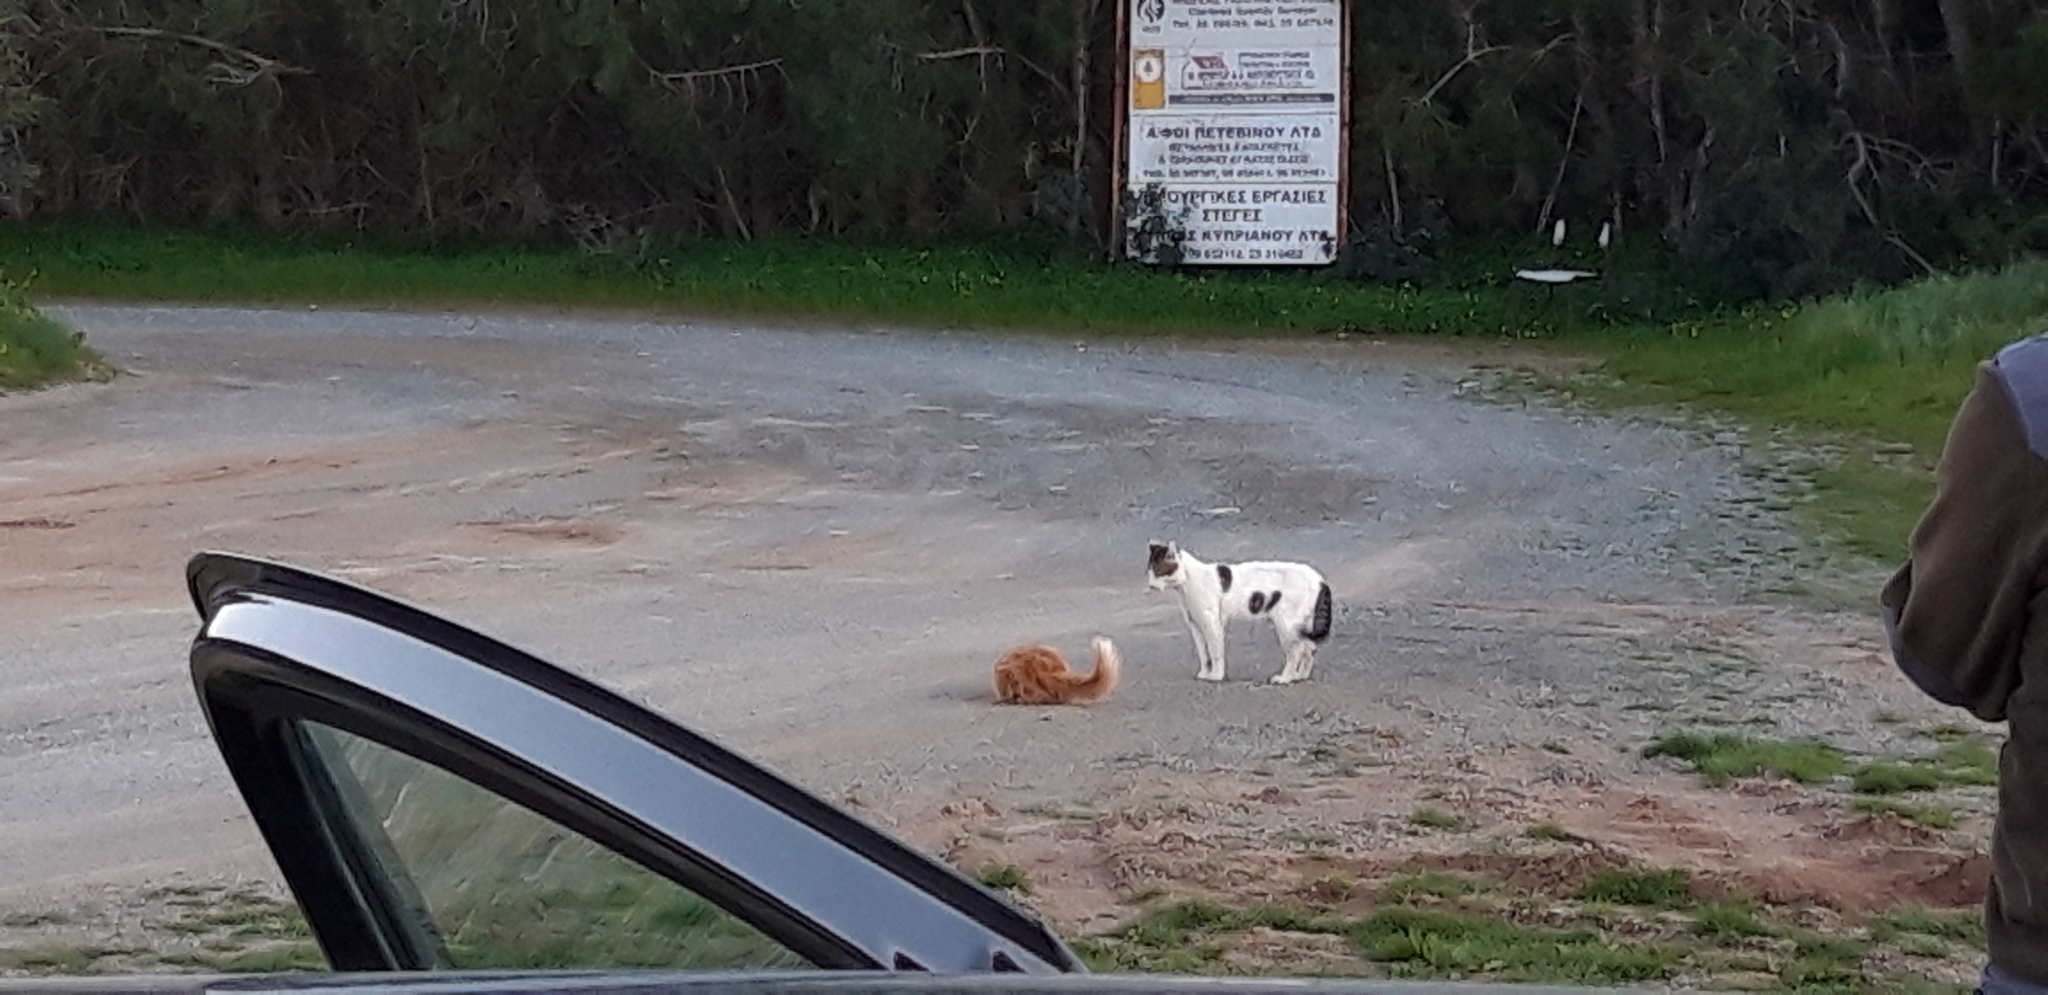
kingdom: Animalia
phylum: Chordata
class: Mammalia
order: Carnivora
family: Felidae
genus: Felis
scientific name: Felis catus
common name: Domestic cat
